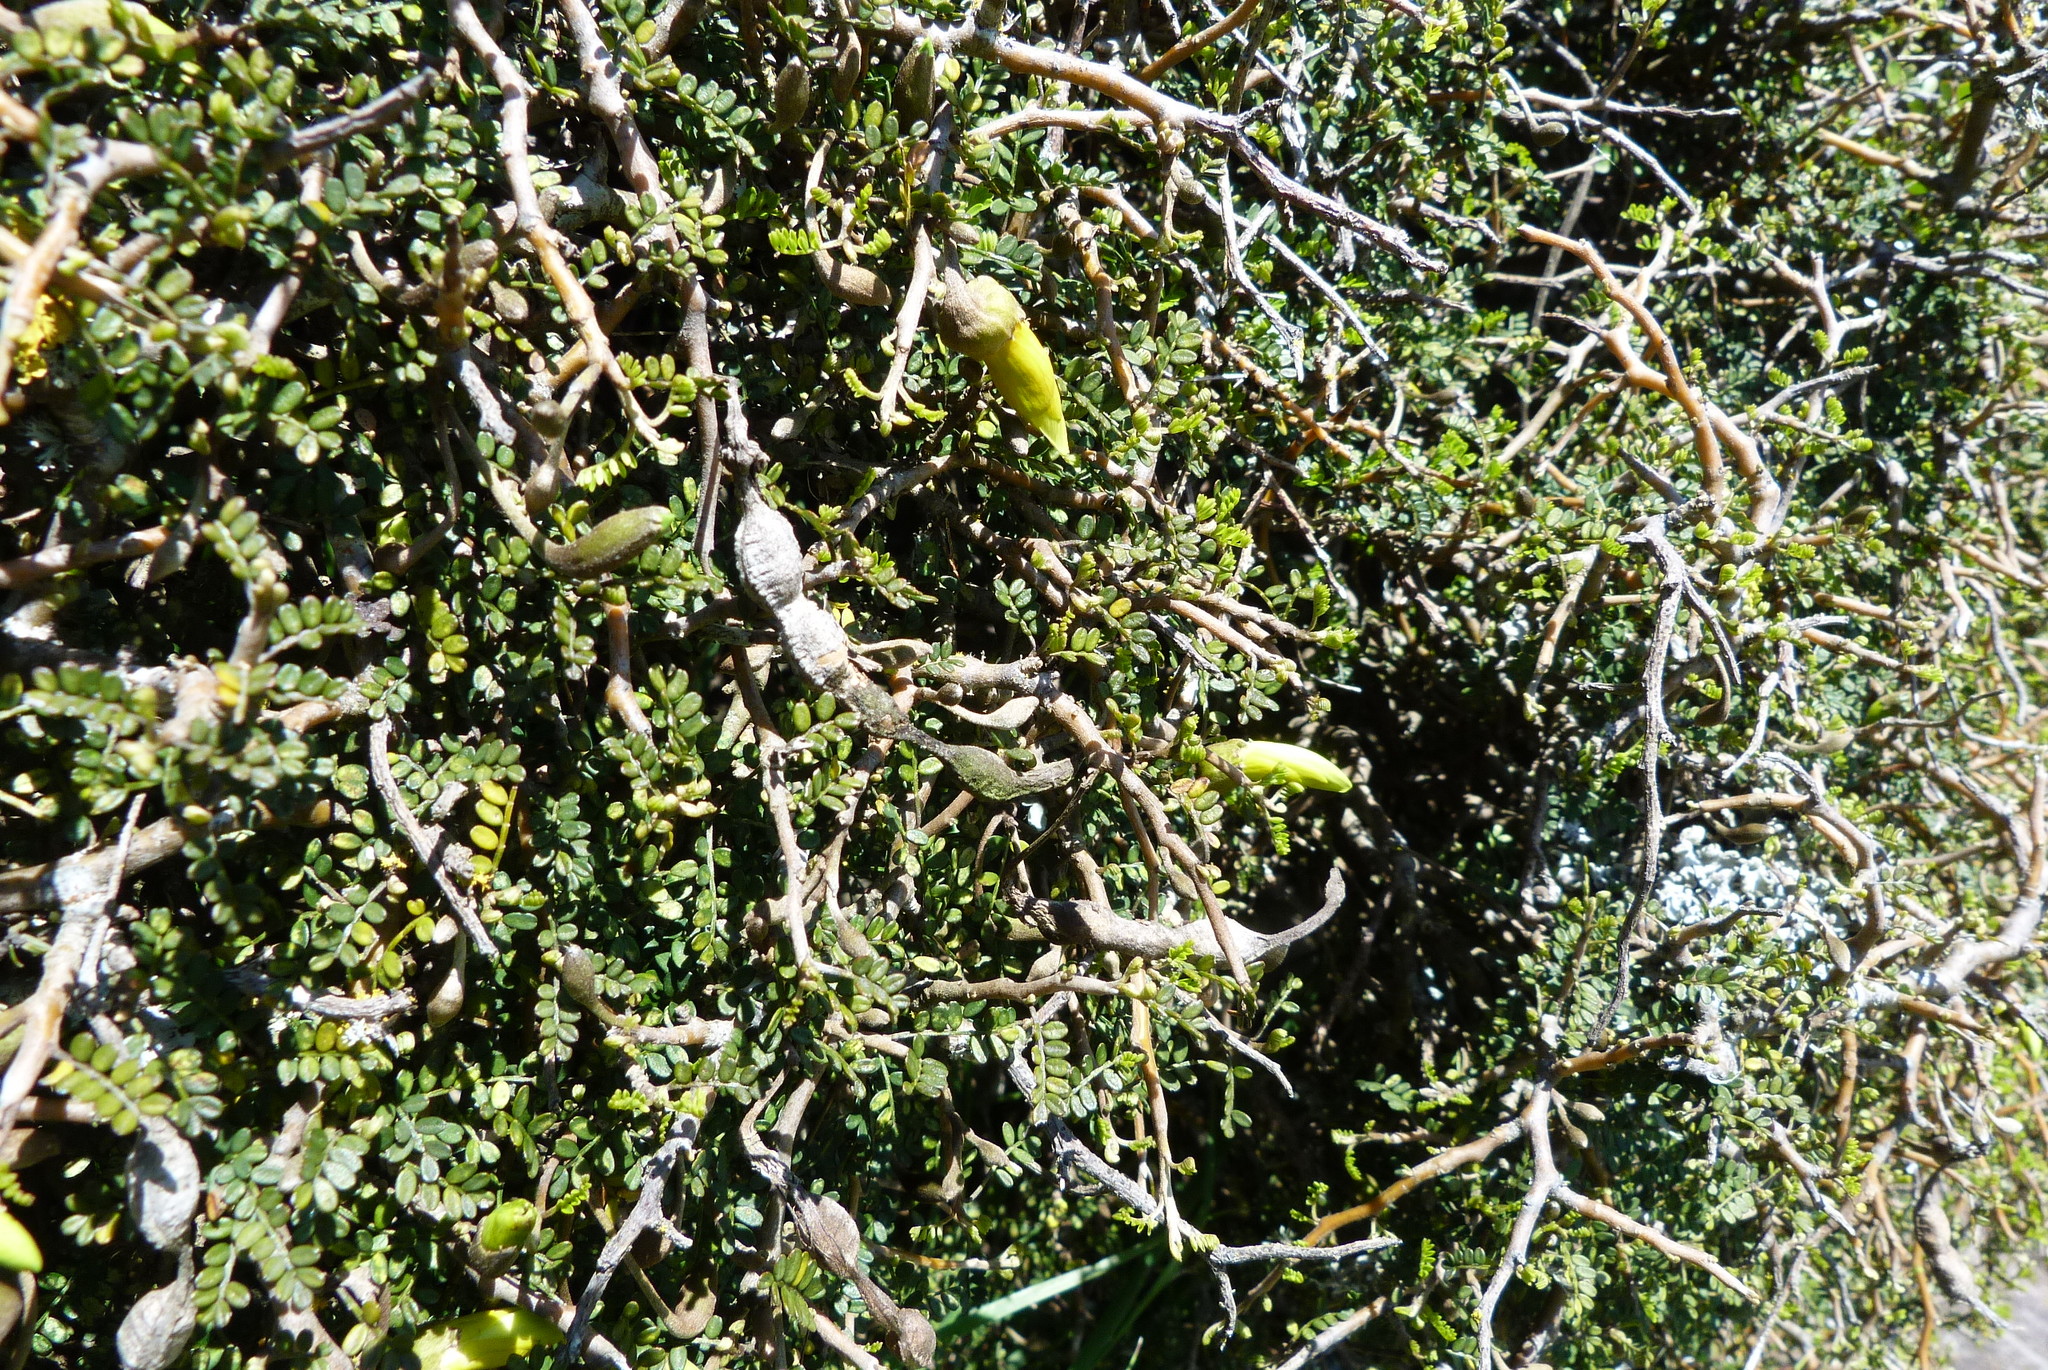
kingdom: Plantae
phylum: Tracheophyta
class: Magnoliopsida
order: Fabales
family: Fabaceae
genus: Sophora
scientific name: Sophora prostrata
